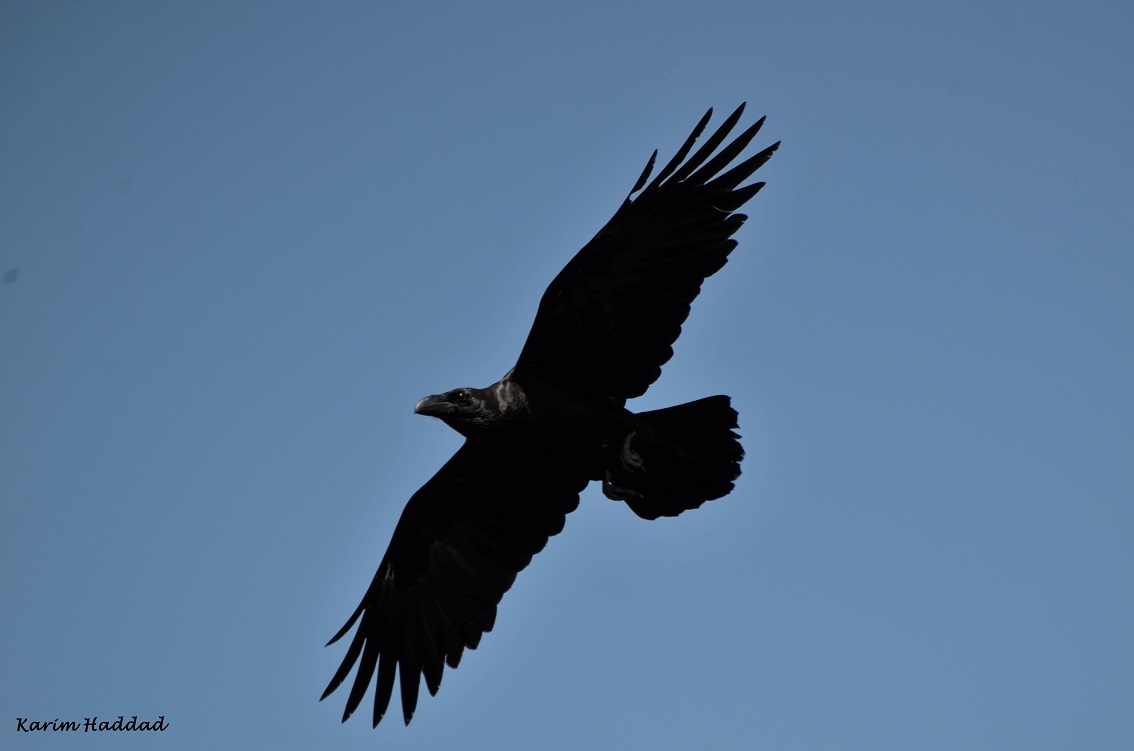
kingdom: Animalia
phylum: Chordata
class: Aves
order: Passeriformes
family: Corvidae
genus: Corvus
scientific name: Corvus corax
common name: Common raven
